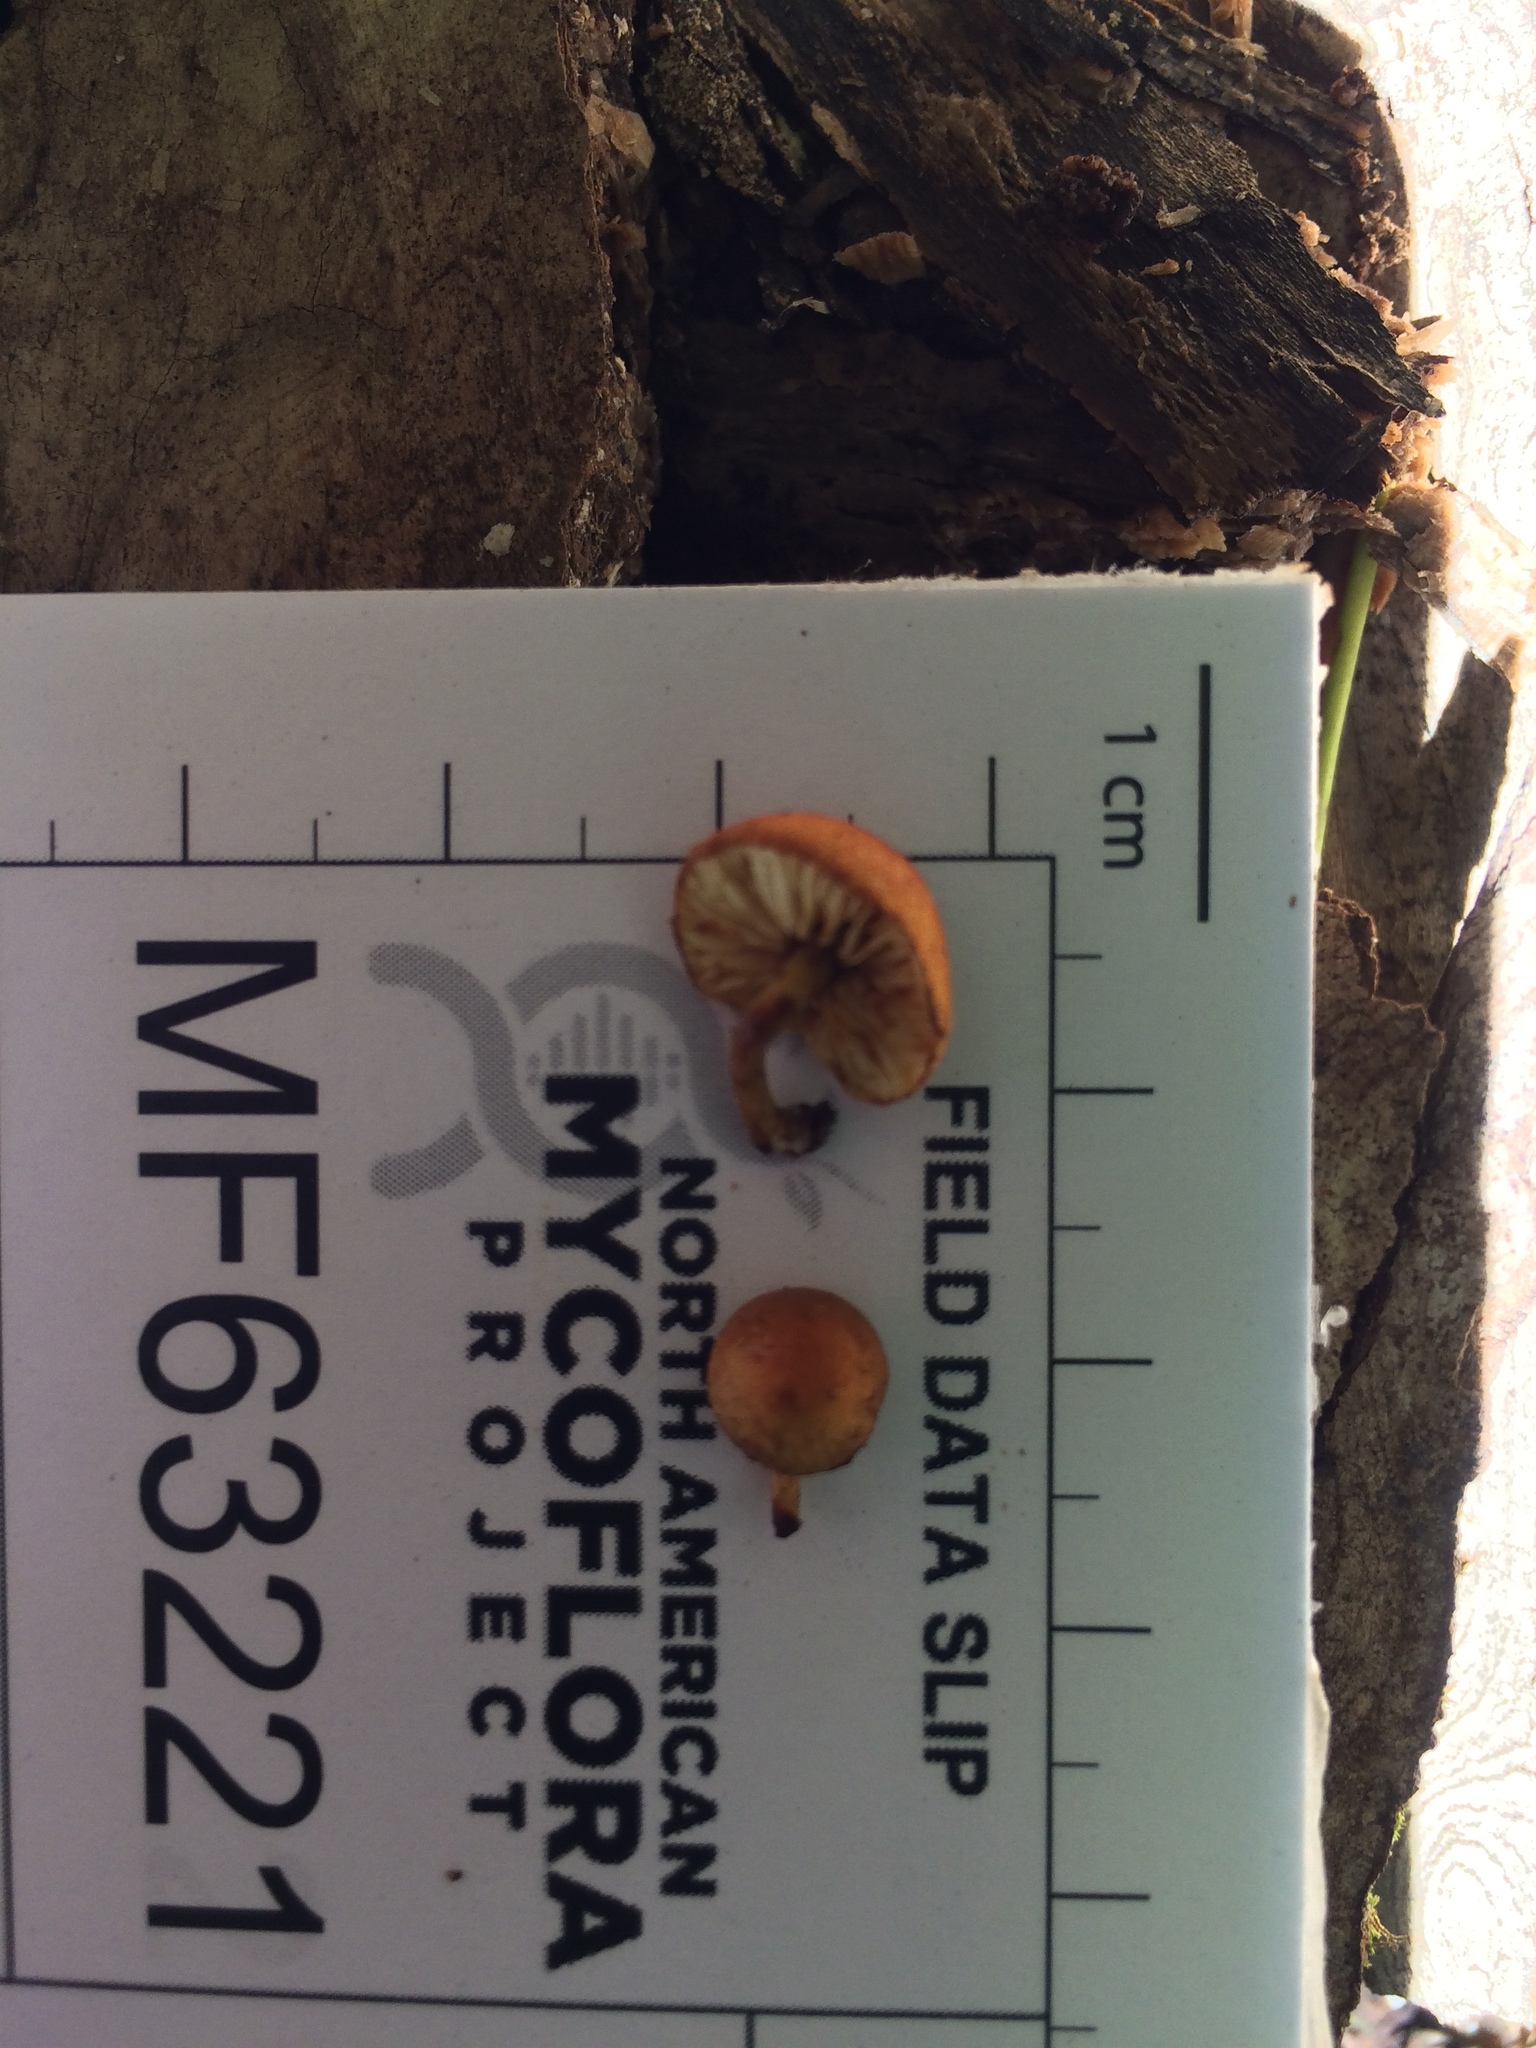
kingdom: Fungi
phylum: Basidiomycota
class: Agaricomycetes
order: Agaricales
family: Crepidotaceae
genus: Pleuroflammula
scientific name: Pleuroflammula subsulphurea
